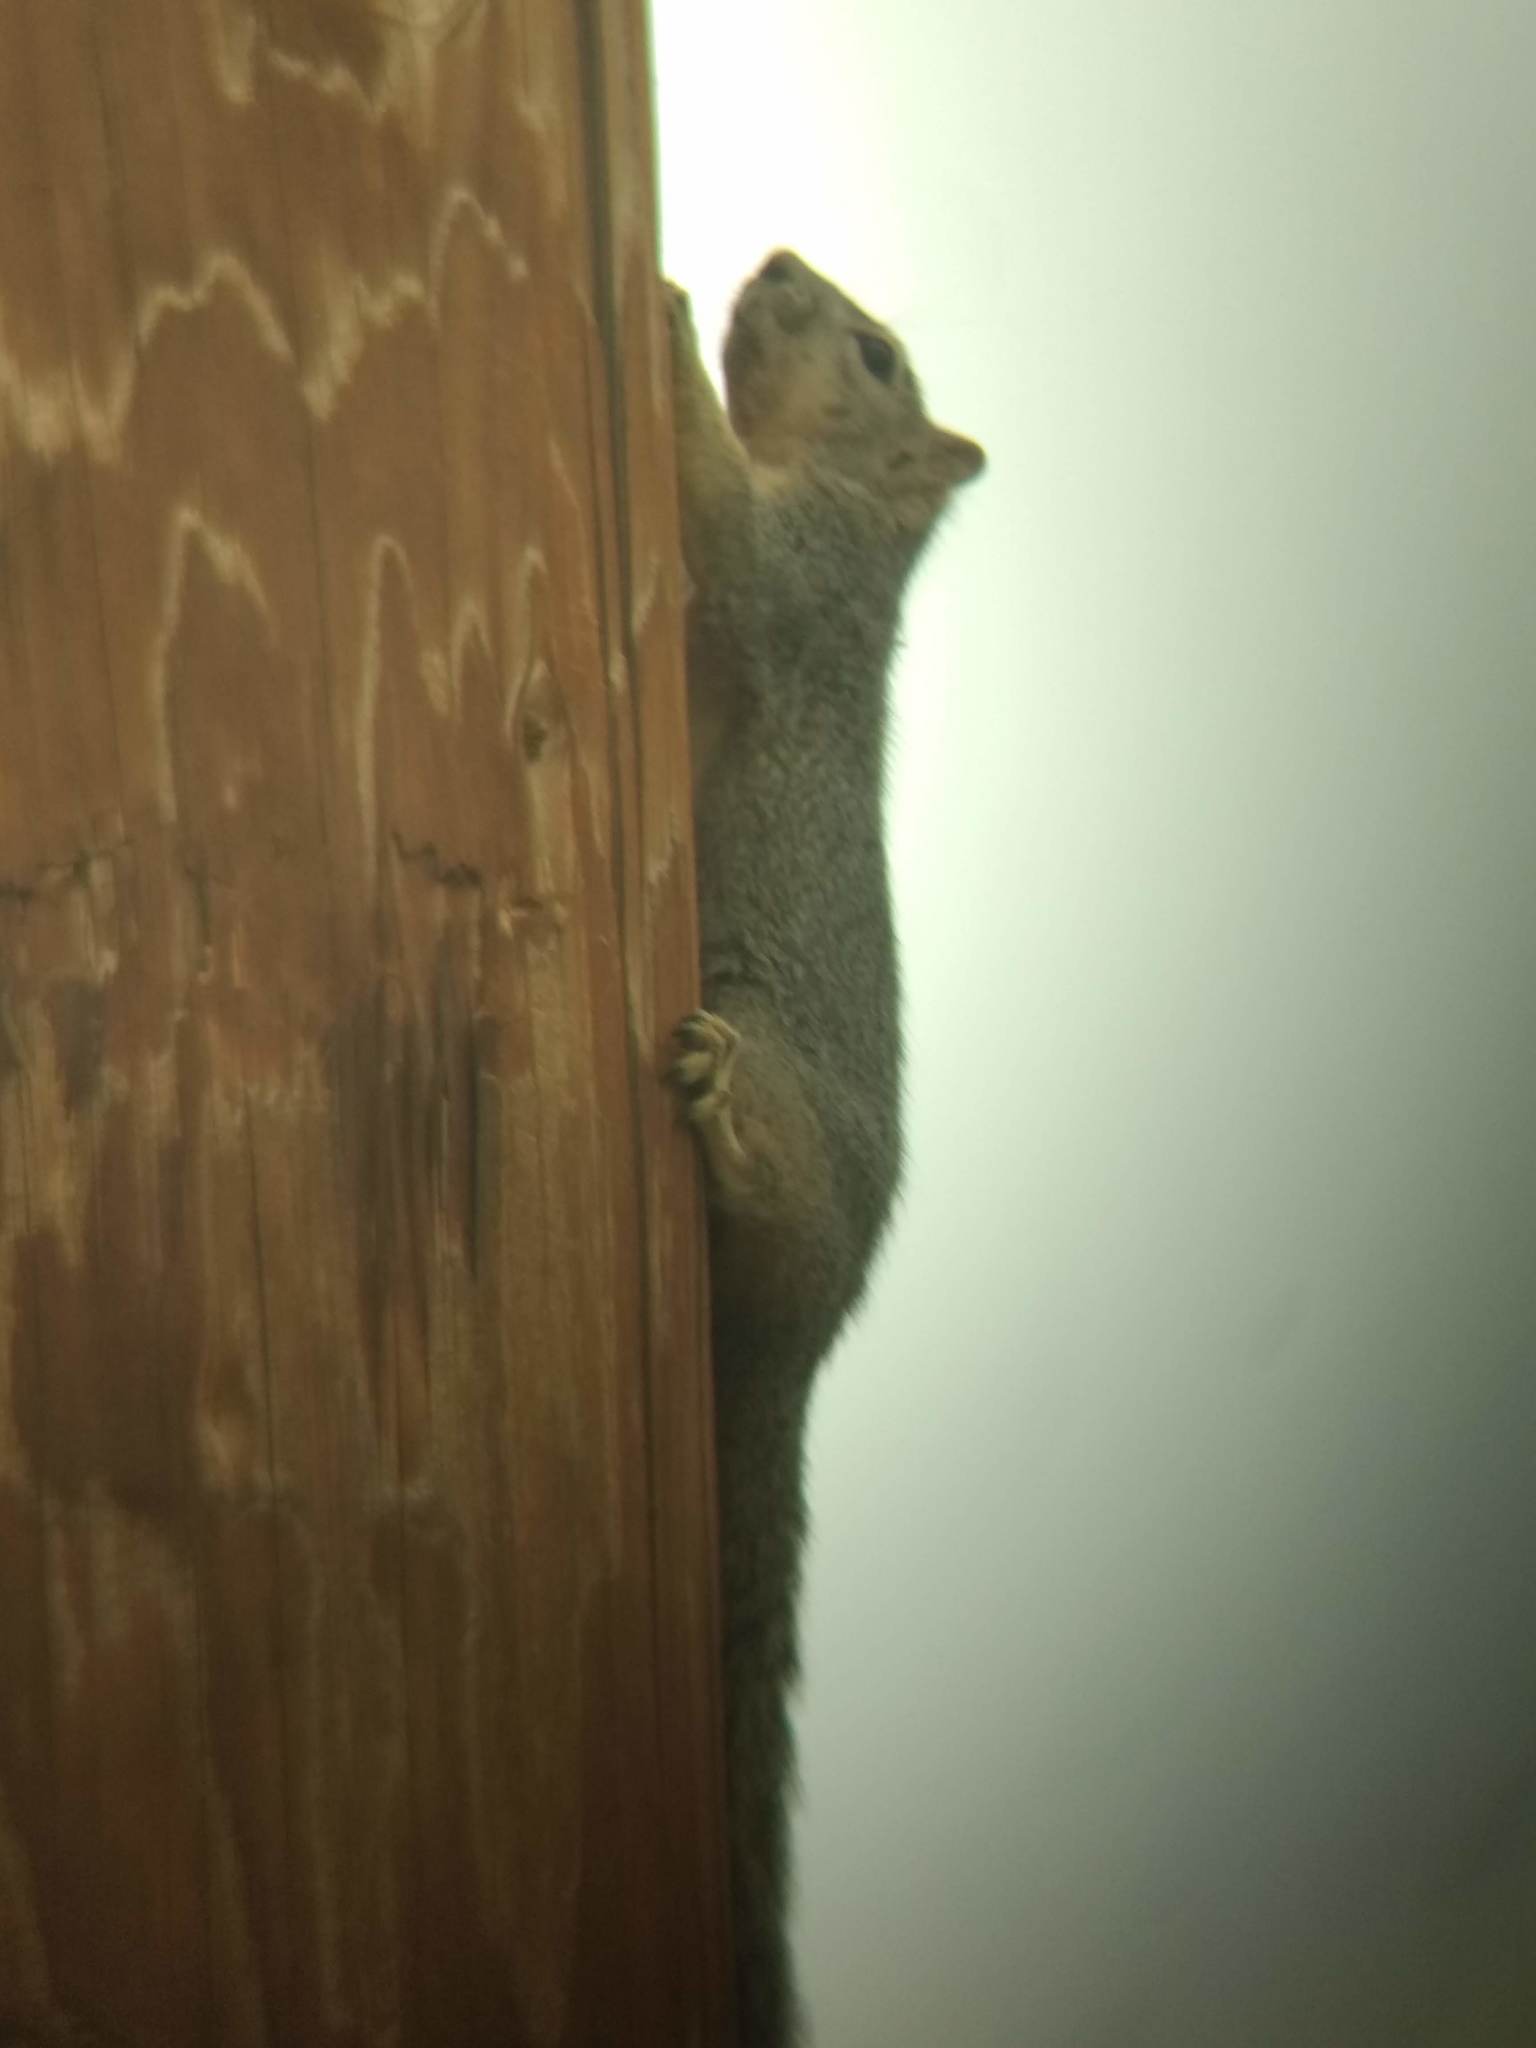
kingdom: Animalia
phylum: Chordata
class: Mammalia
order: Rodentia
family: Sciuridae
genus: Sciurus
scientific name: Sciurus niger
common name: Fox squirrel
